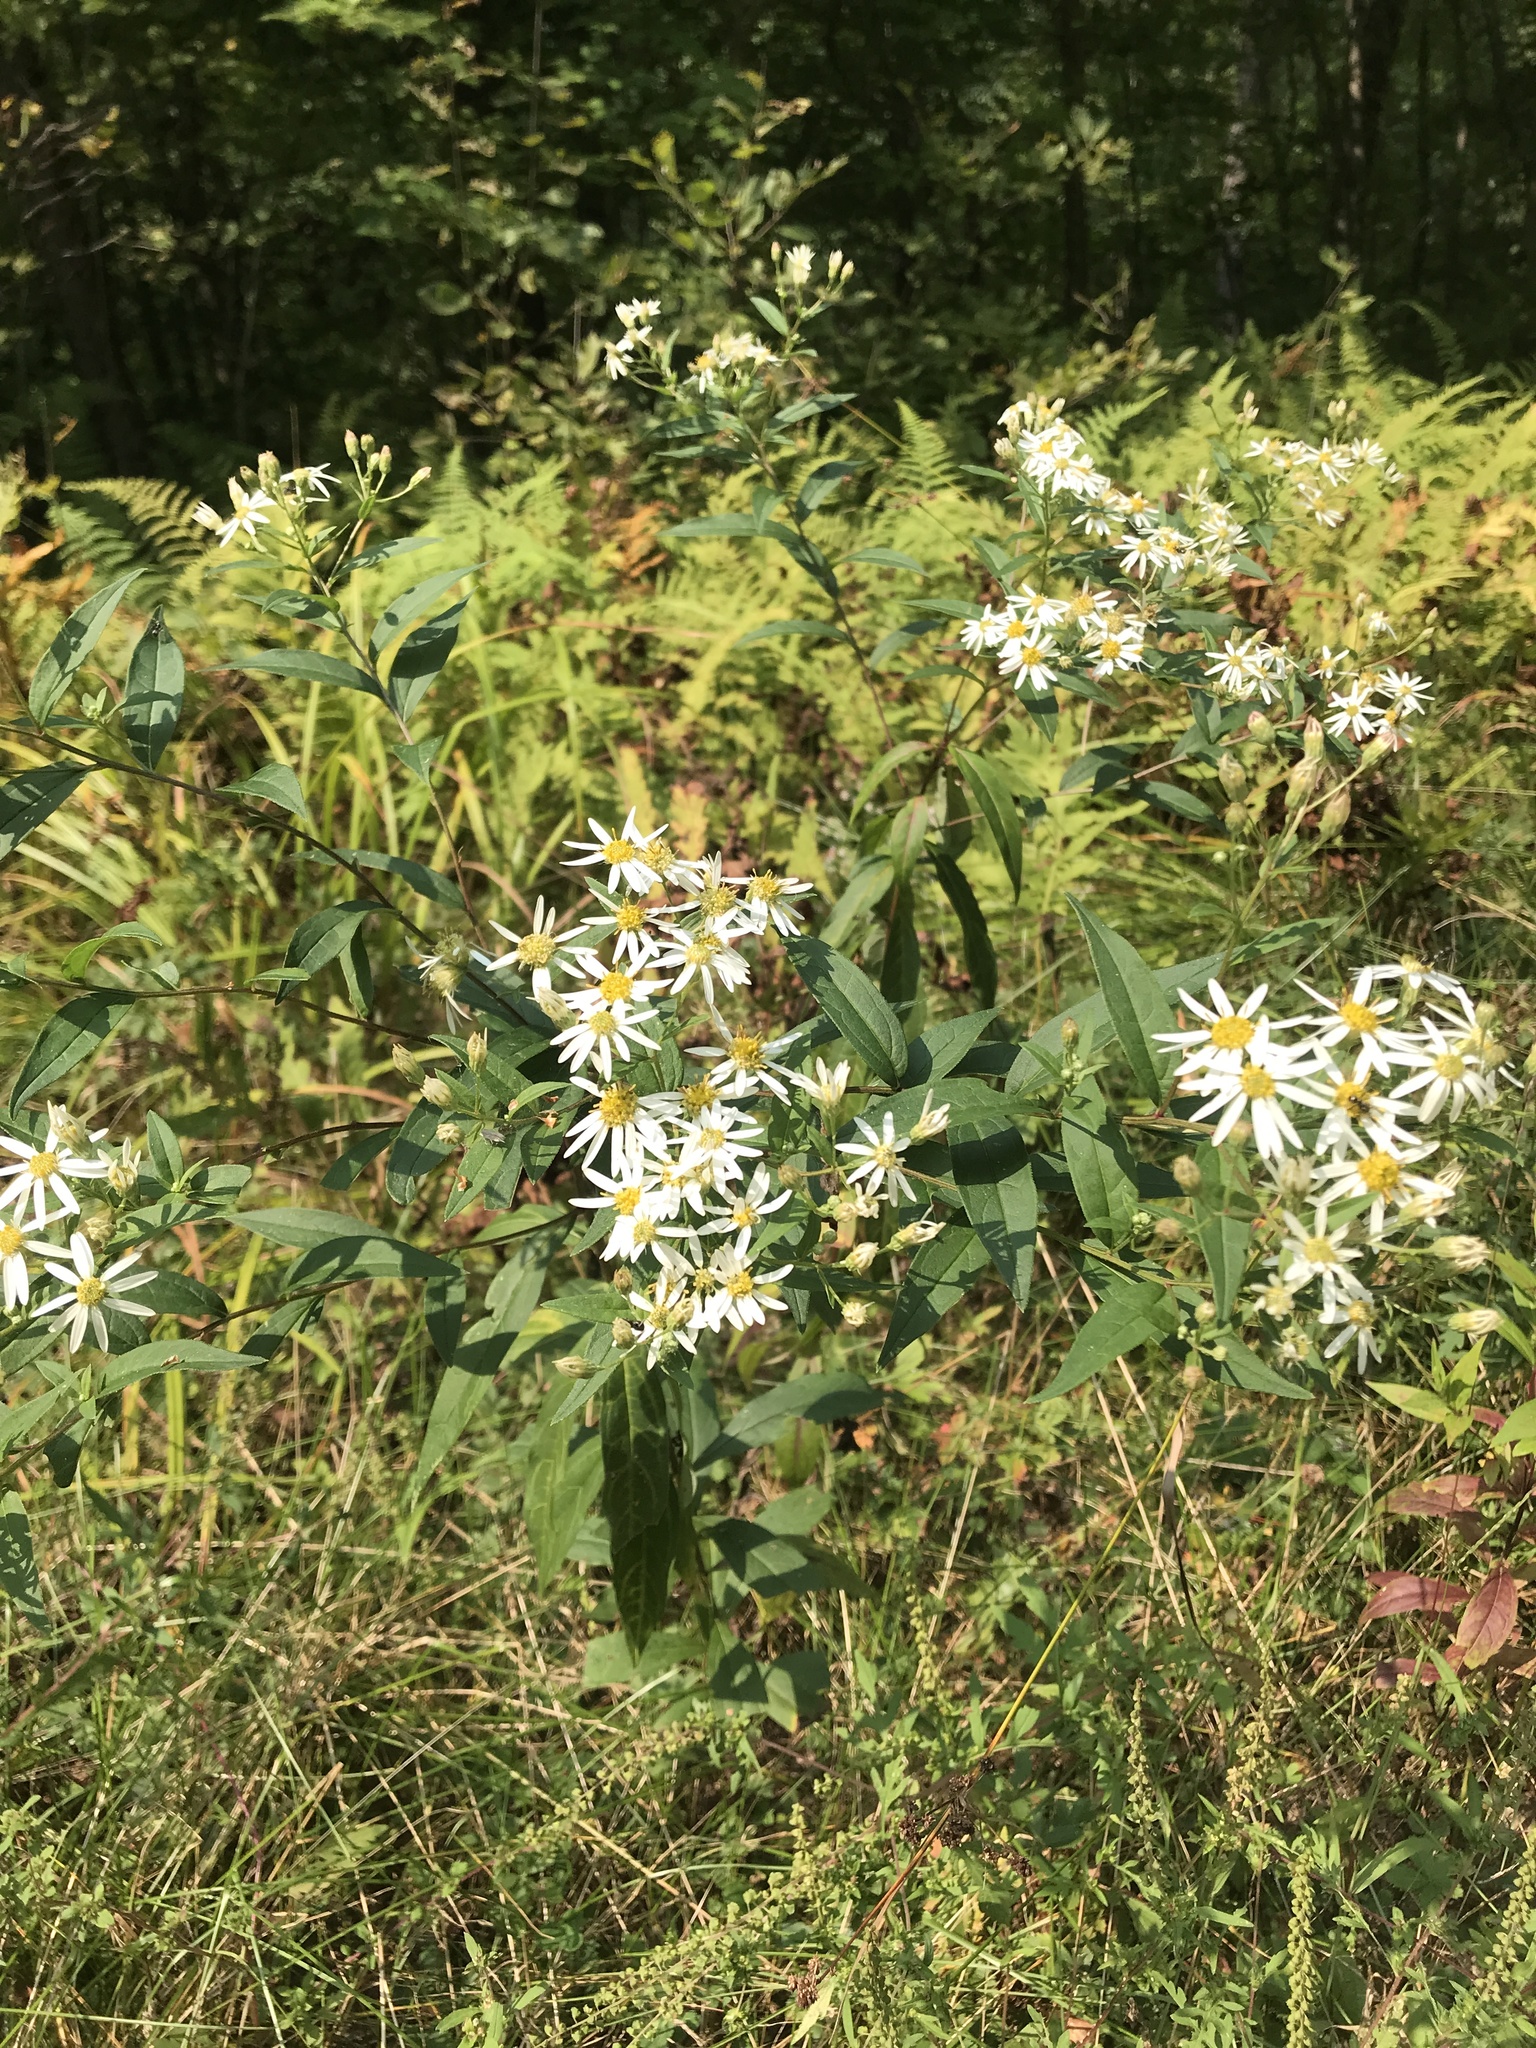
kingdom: Plantae
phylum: Tracheophyta
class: Magnoliopsida
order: Asterales
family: Asteraceae
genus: Doellingeria
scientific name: Doellingeria umbellata
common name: Flat-top white aster
